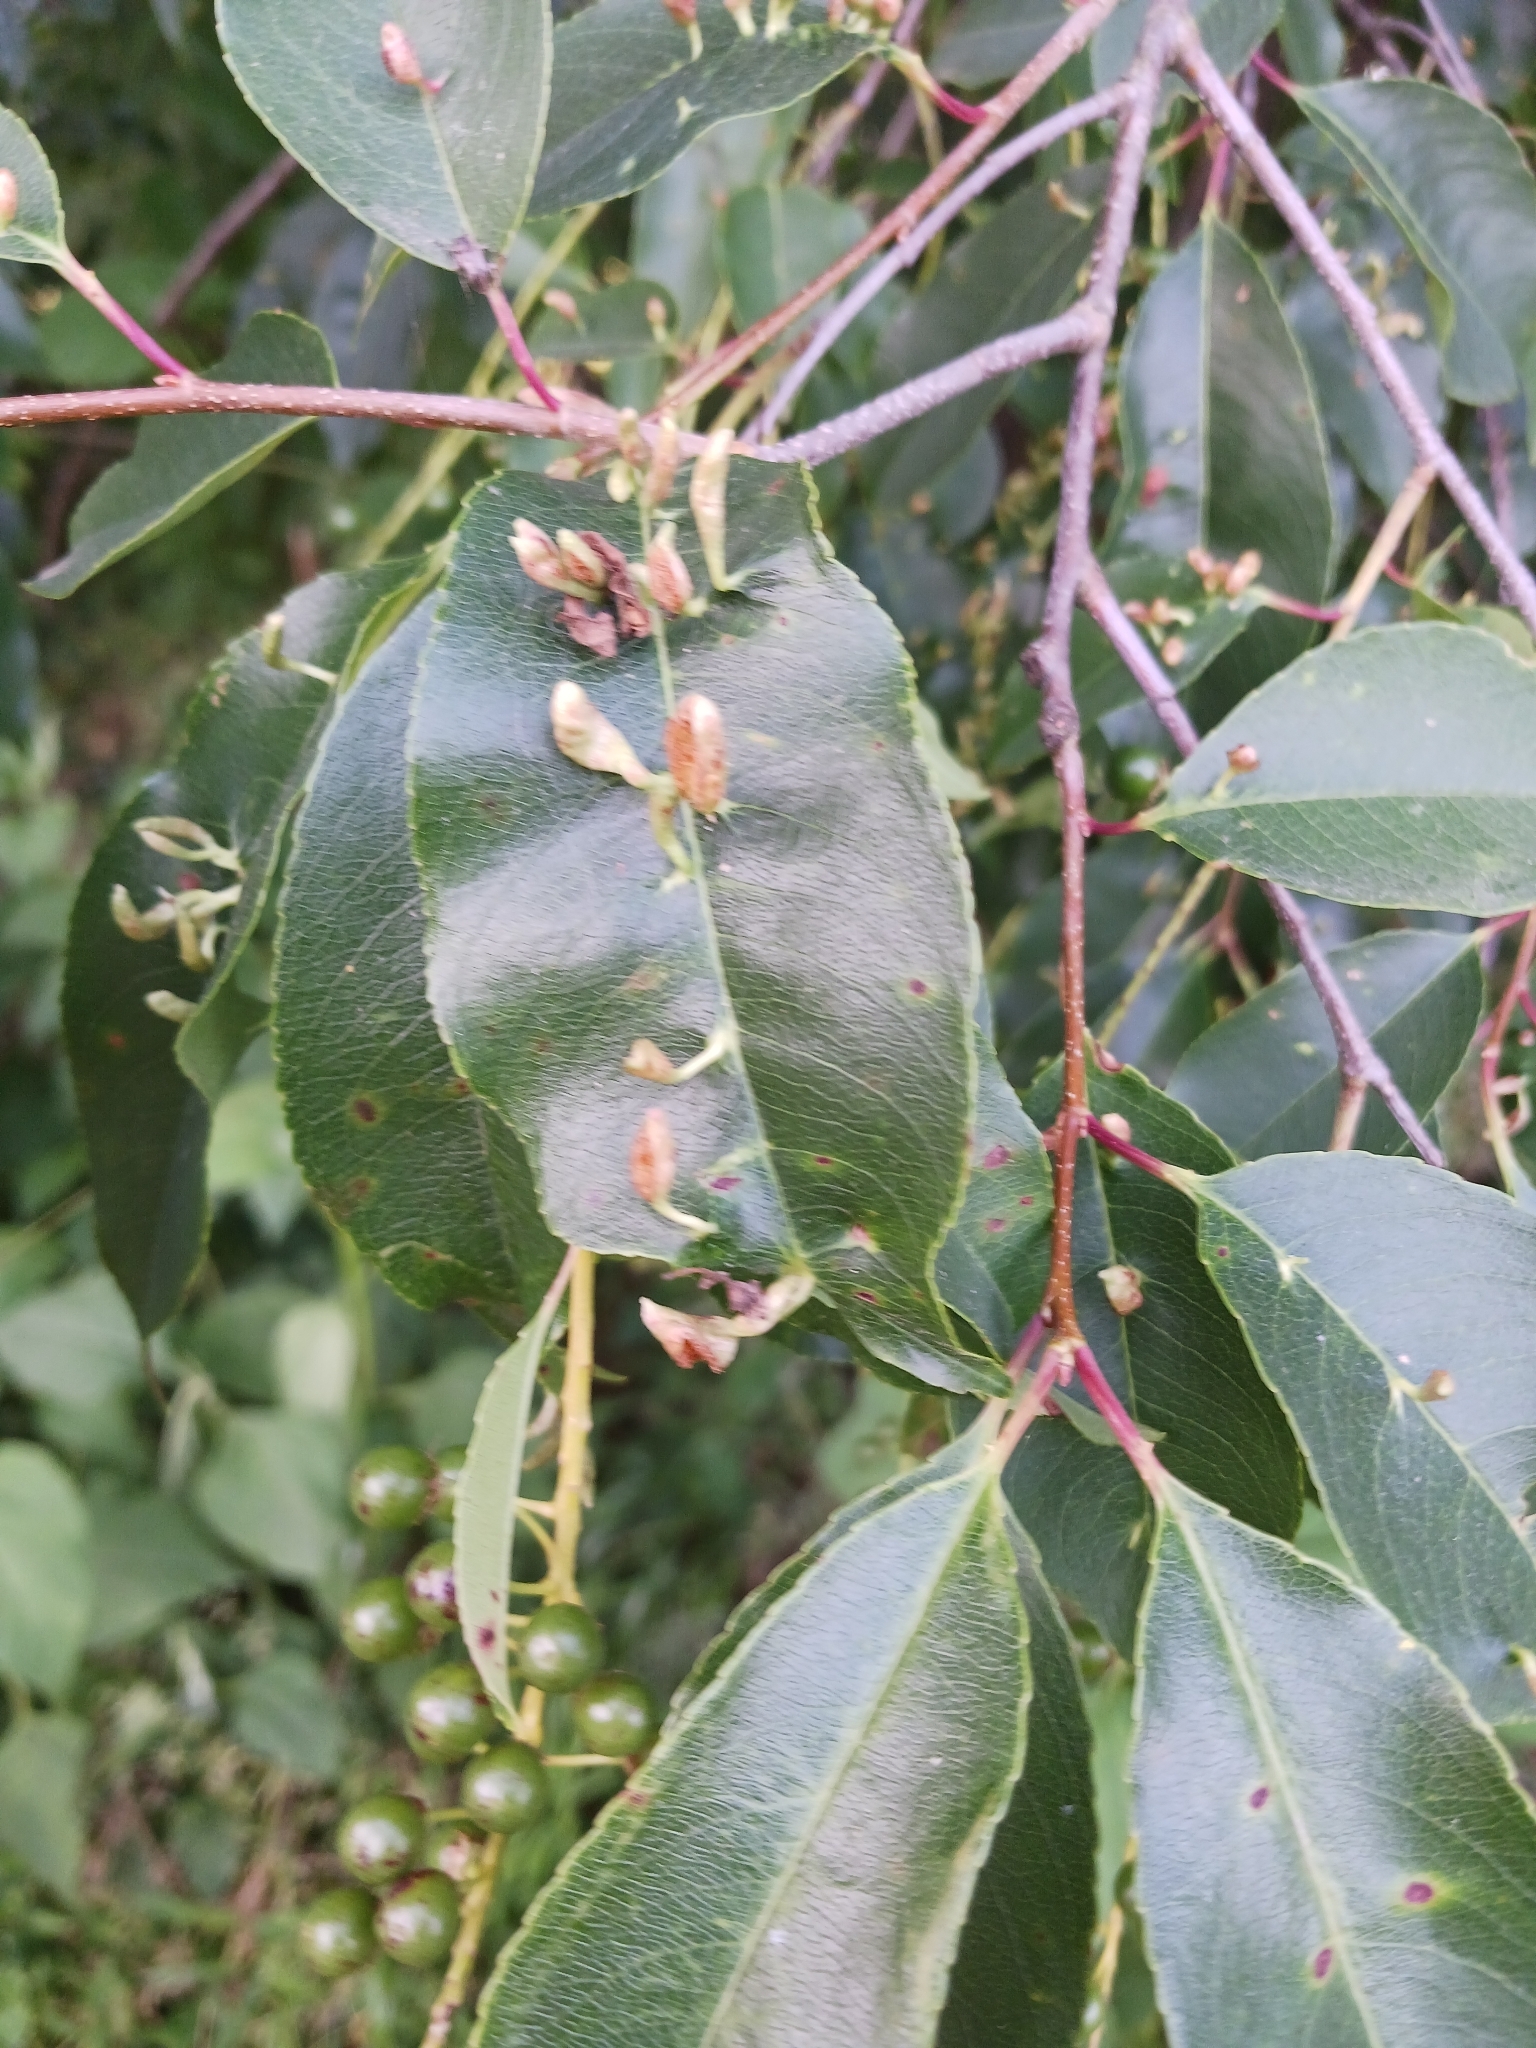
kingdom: Animalia
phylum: Arthropoda
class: Arachnida
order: Trombidiformes
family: Eriophyidae
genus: Eriophyes
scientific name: Eriophyes
